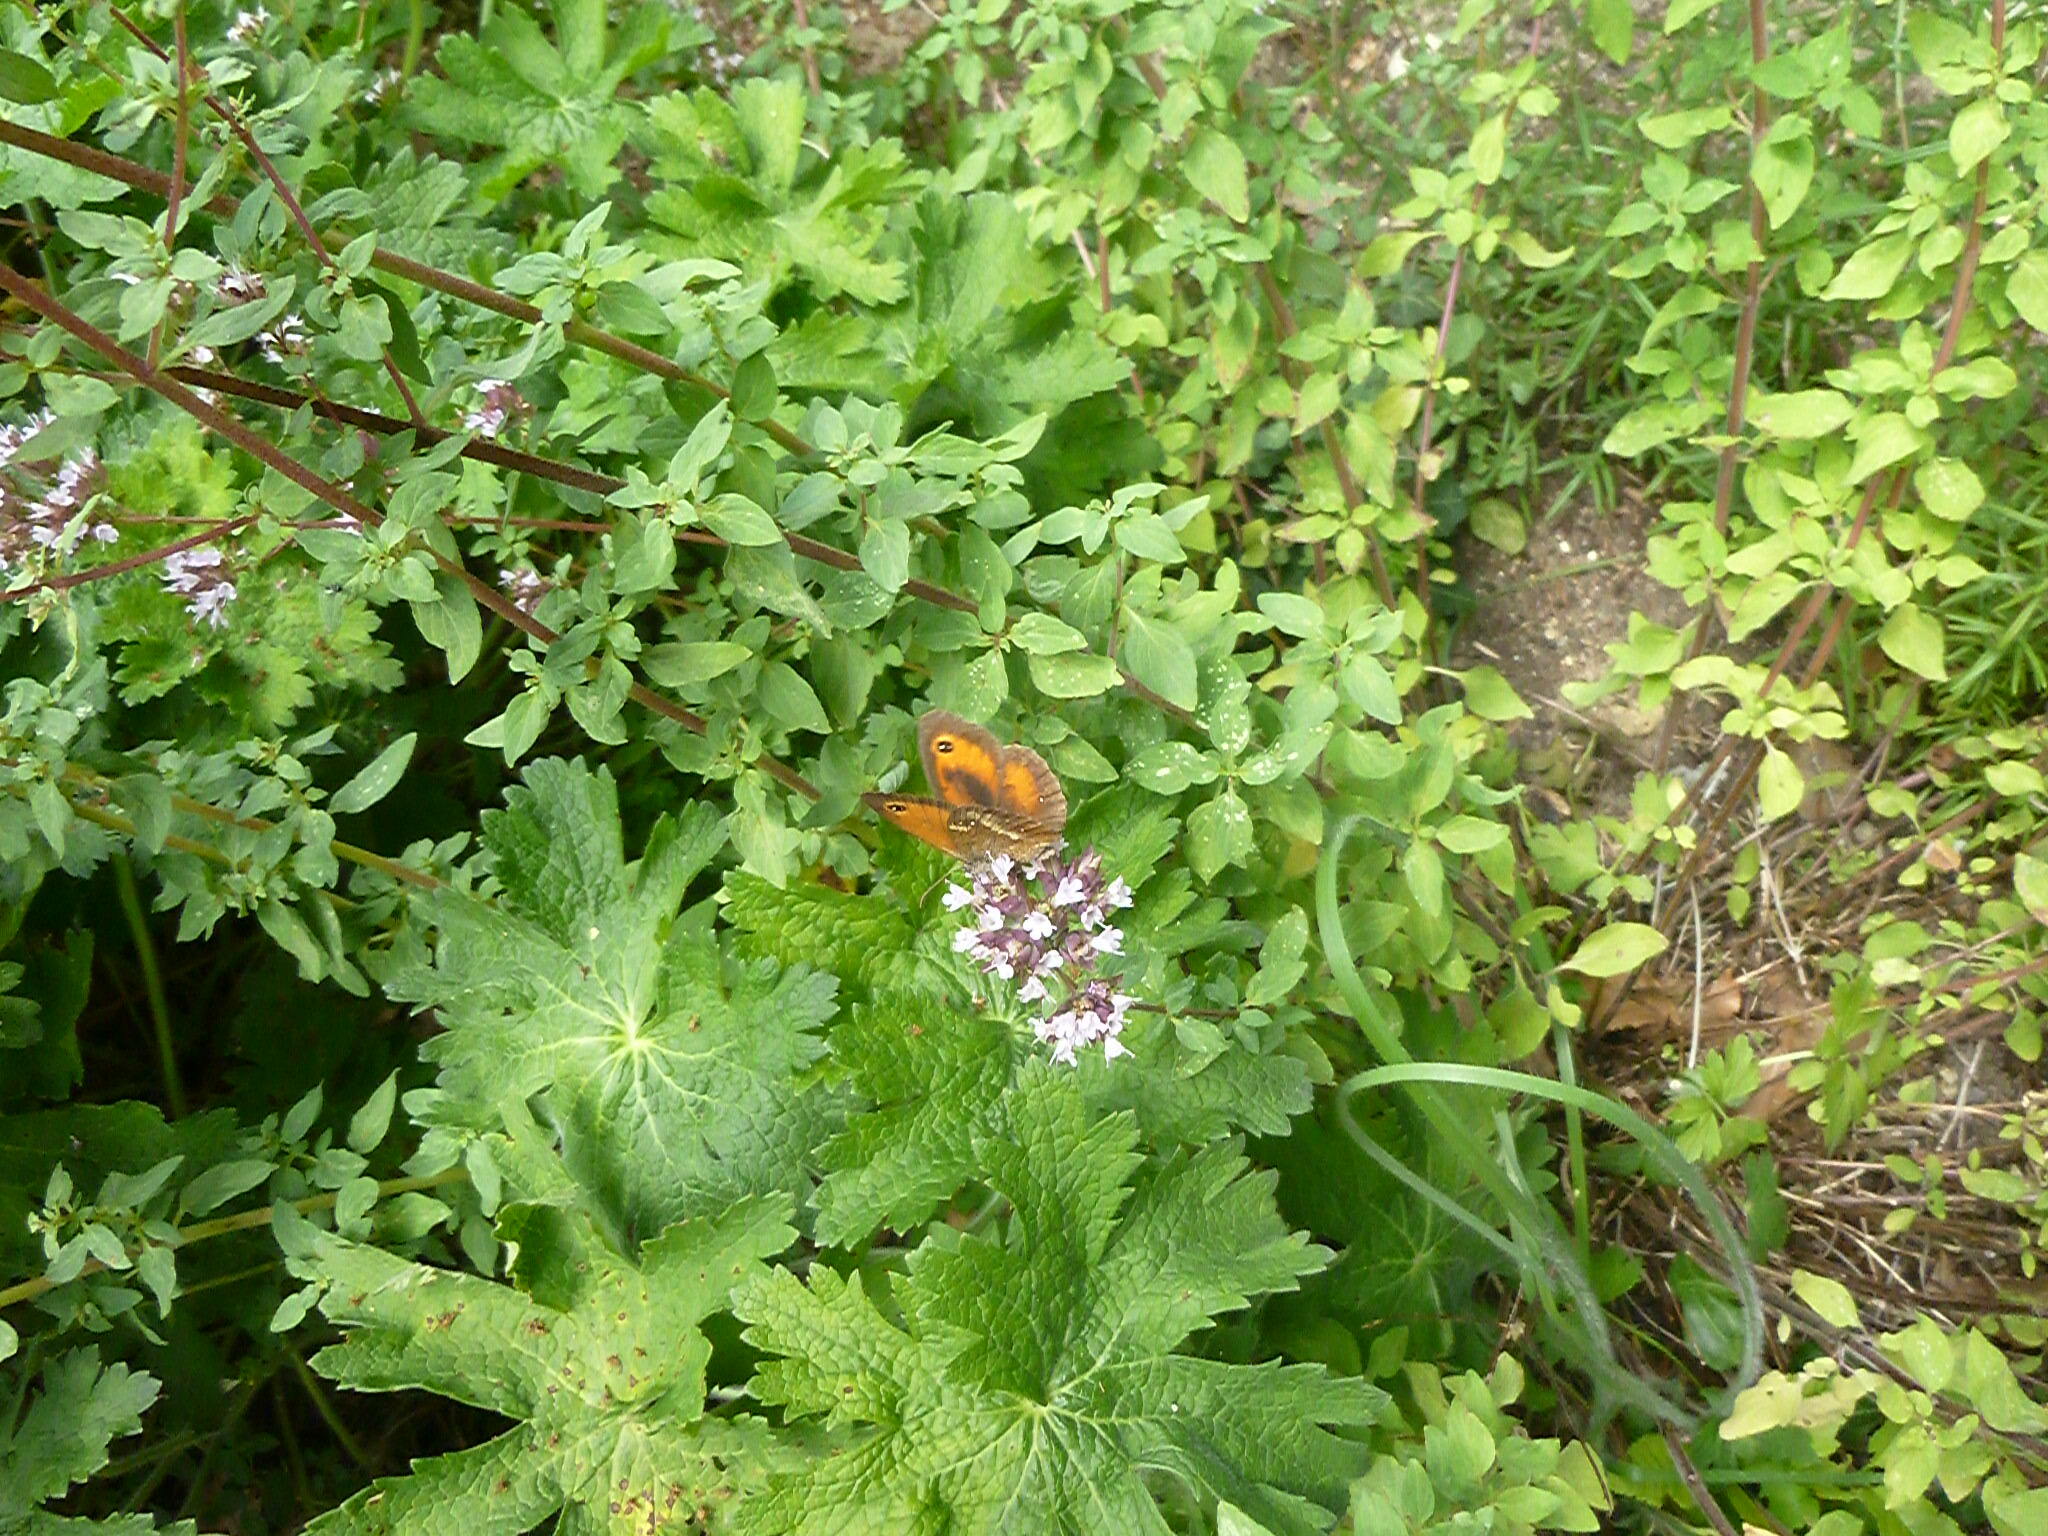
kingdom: Animalia
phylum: Arthropoda
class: Insecta
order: Lepidoptera
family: Nymphalidae
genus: Pyronia
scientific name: Pyronia tithonus
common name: Gatekeeper
